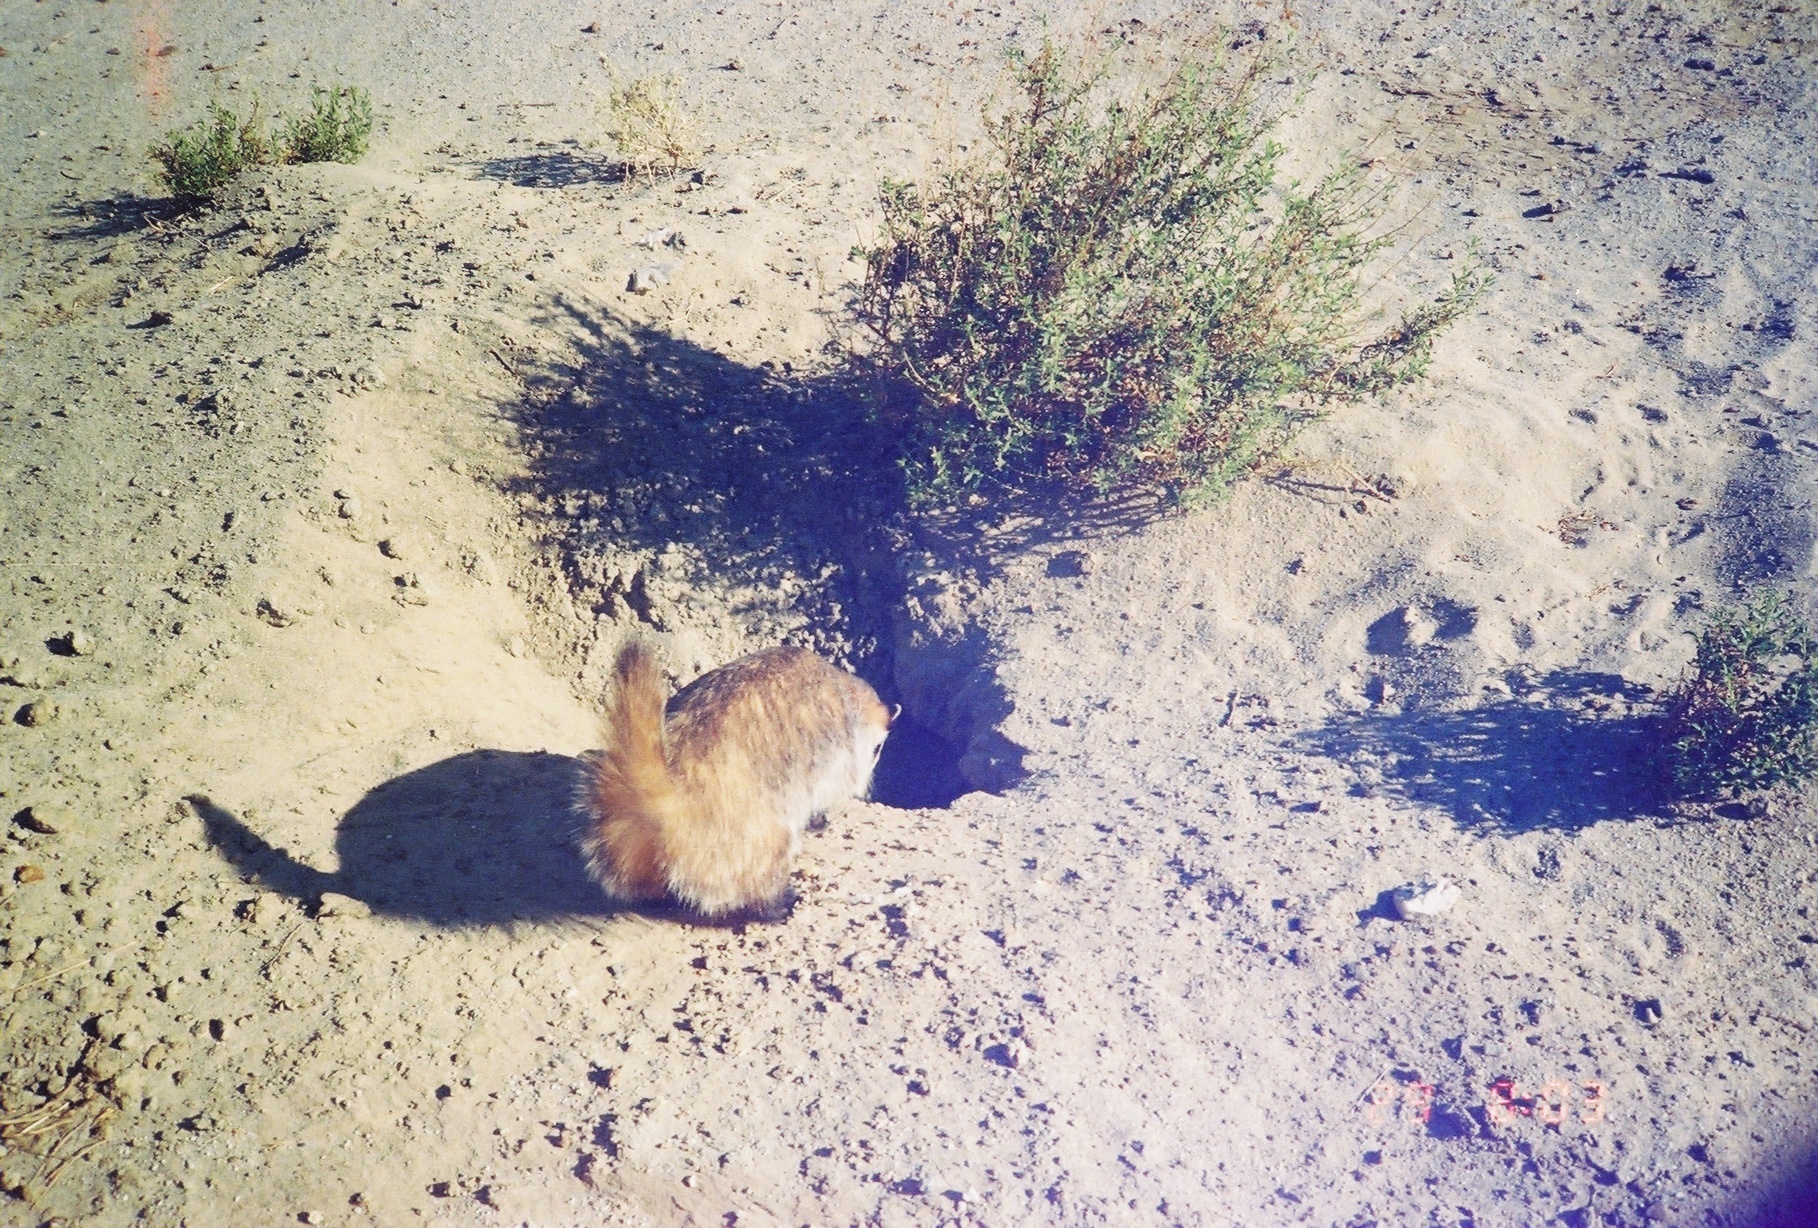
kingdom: Animalia
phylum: Chordata
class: Mammalia
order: Carnivora
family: Mustelidae
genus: Taxidea
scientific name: Taxidea taxus
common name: American badger
